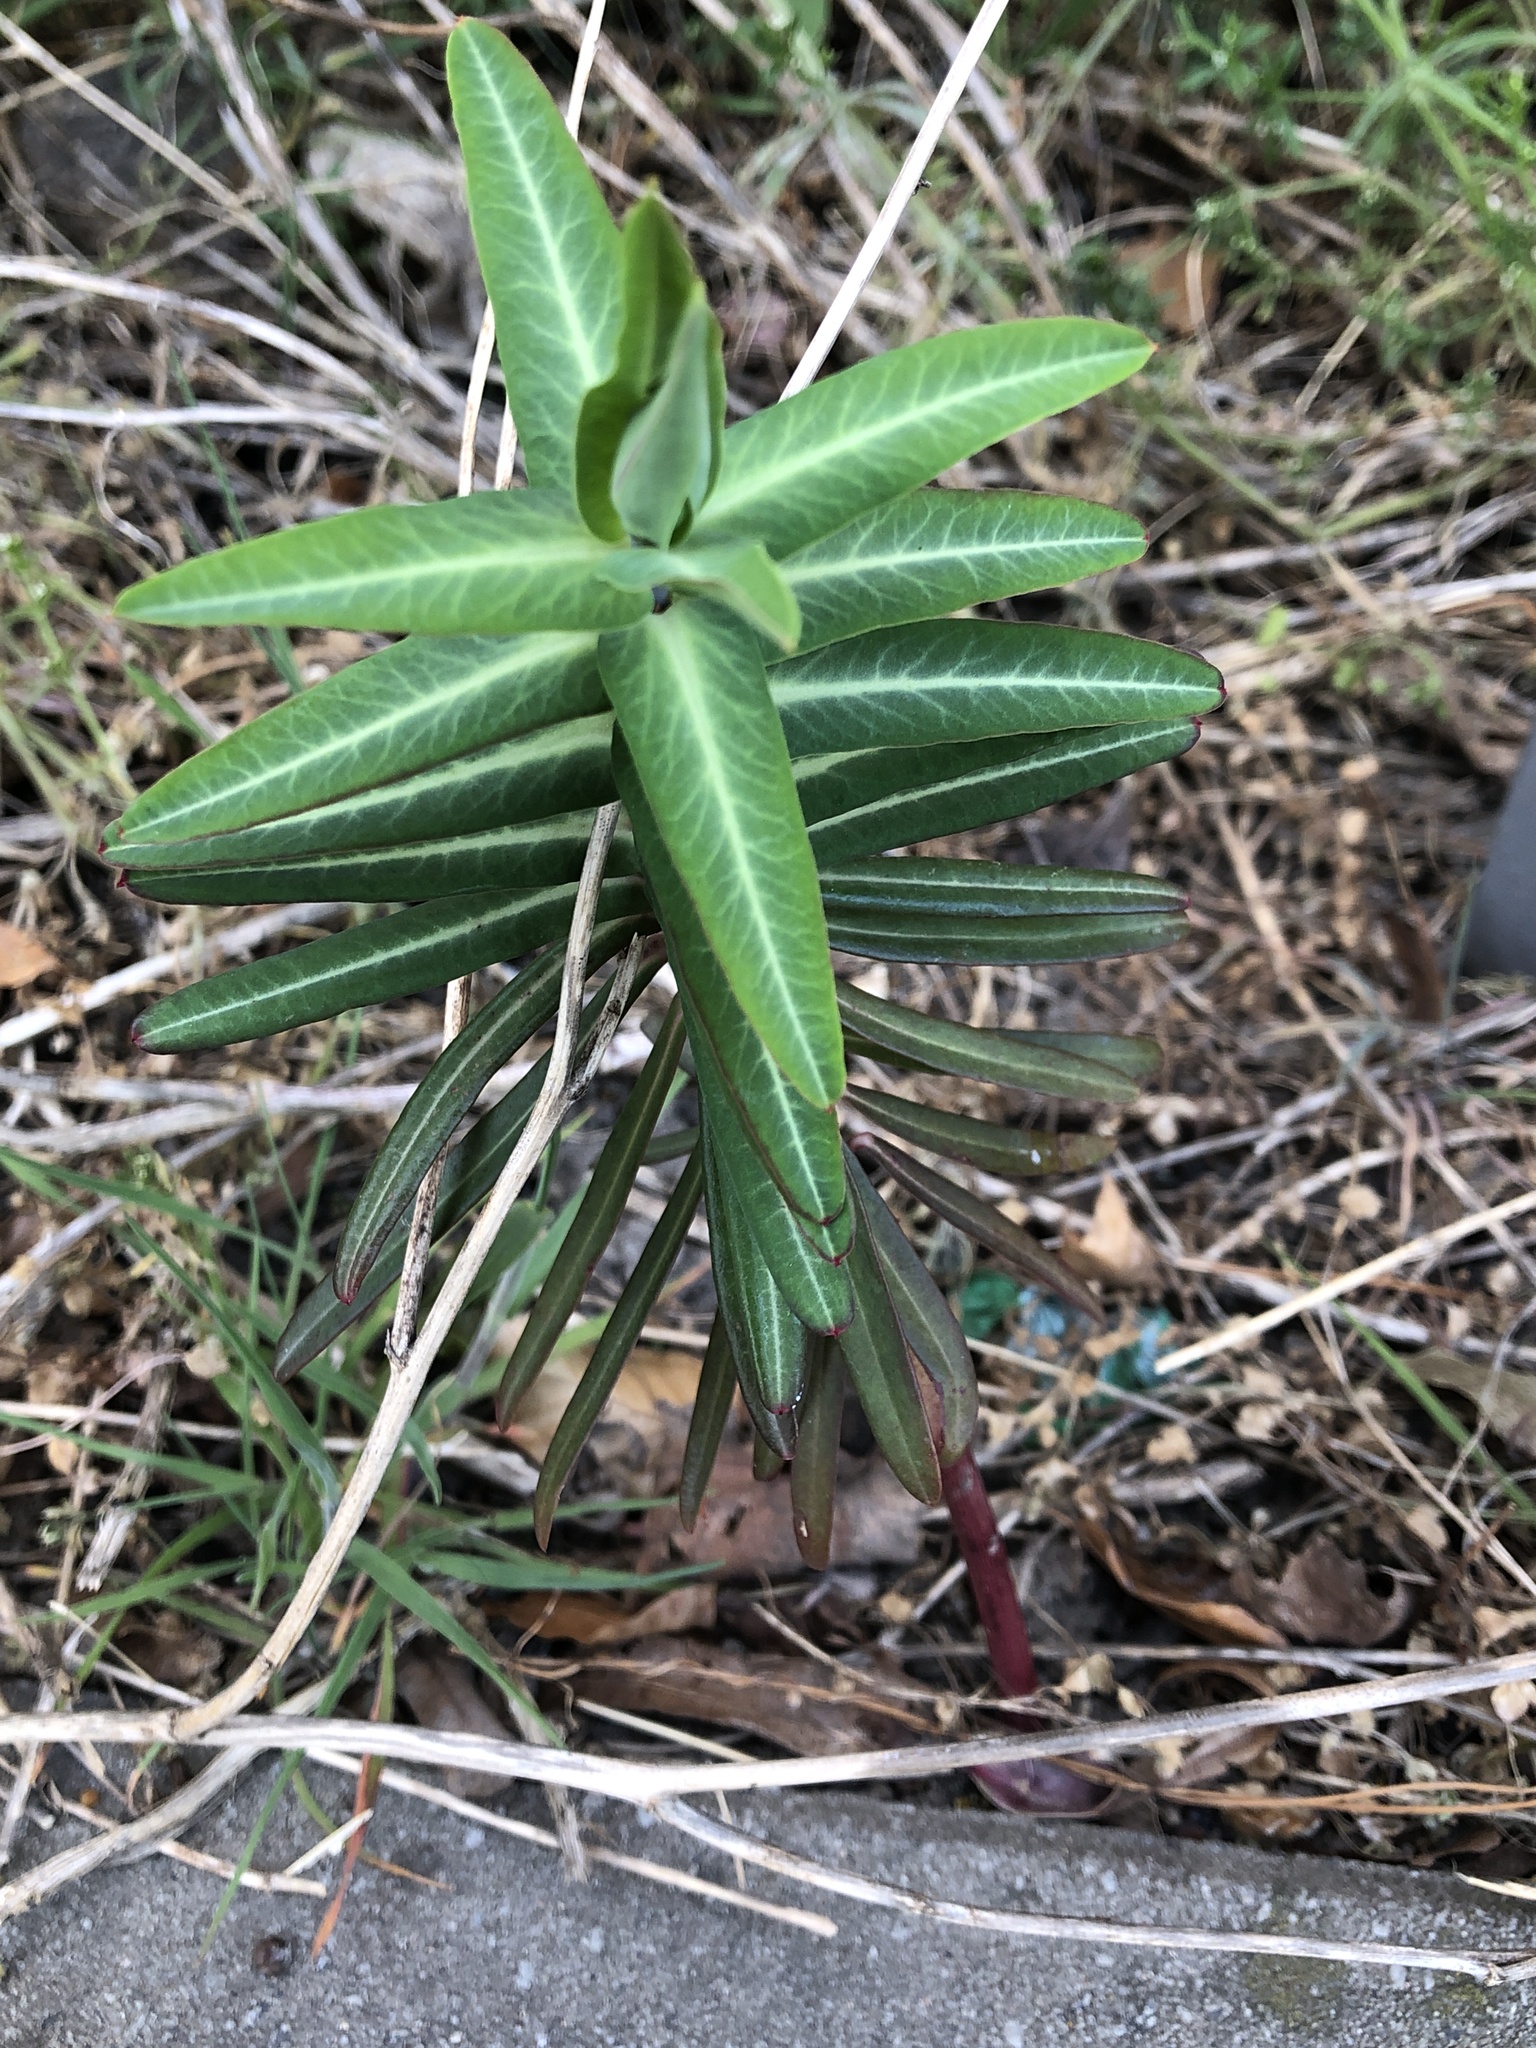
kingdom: Plantae
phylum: Tracheophyta
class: Magnoliopsida
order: Malpighiales
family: Euphorbiaceae
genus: Euphorbia
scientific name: Euphorbia lathyris
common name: Caper spurge
